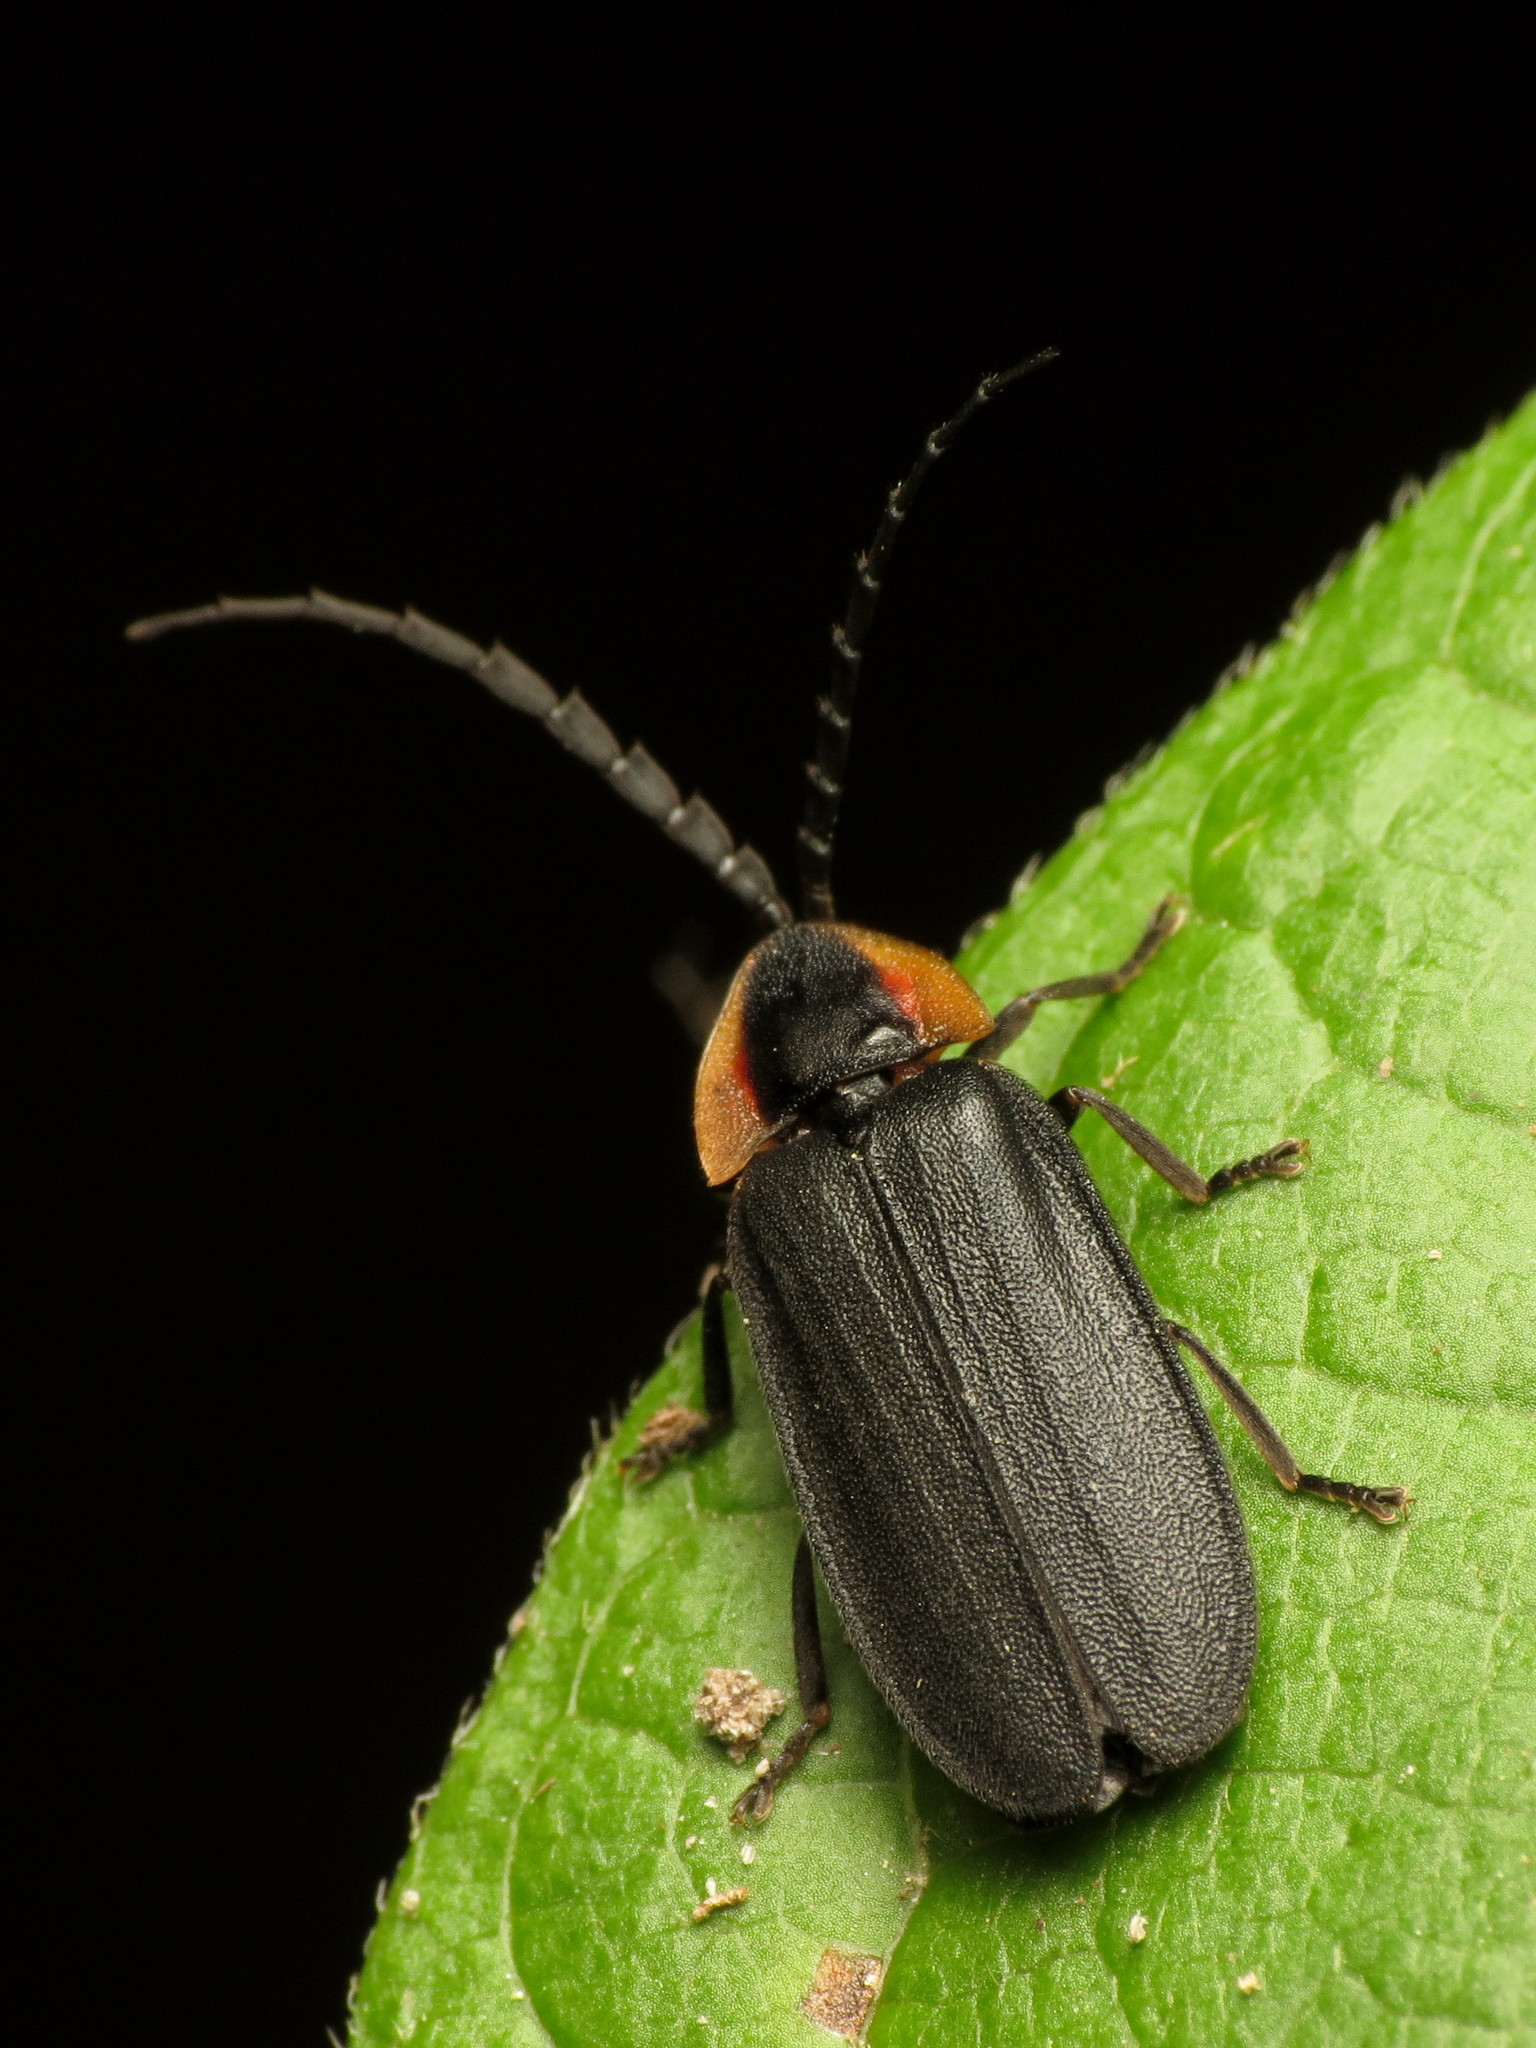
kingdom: Animalia
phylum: Arthropoda
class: Insecta
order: Coleoptera
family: Lampyridae
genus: Lucidota
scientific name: Lucidota atra
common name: Black firefly
